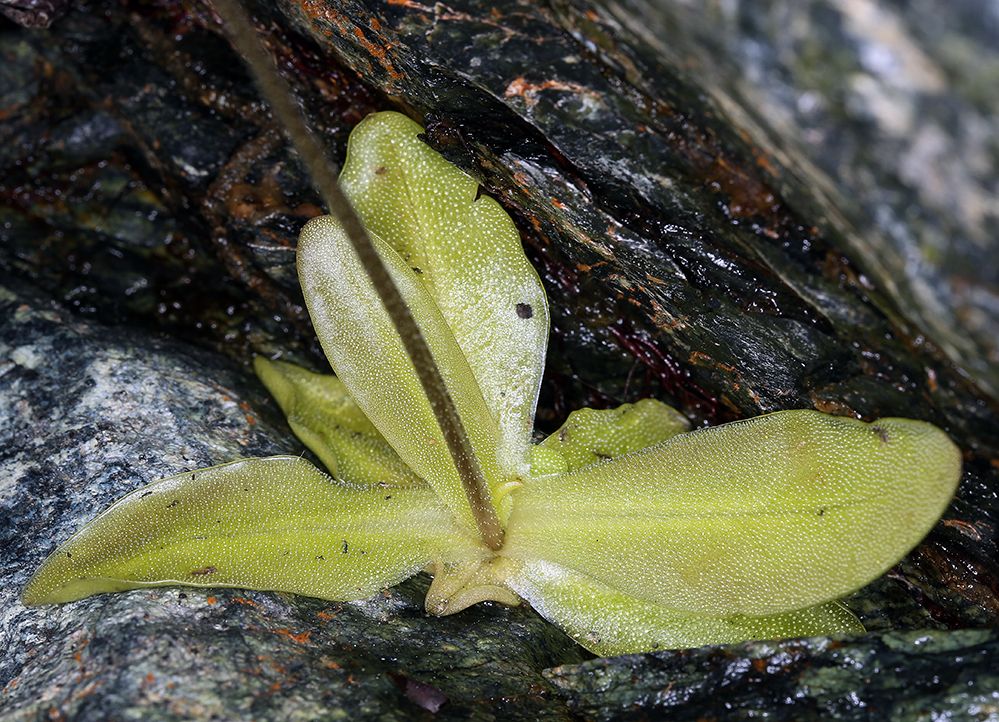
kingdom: Plantae
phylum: Tracheophyta
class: Magnoliopsida
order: Lamiales
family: Lentibulariaceae
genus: Pinguicula
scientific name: Pinguicula macroceras
